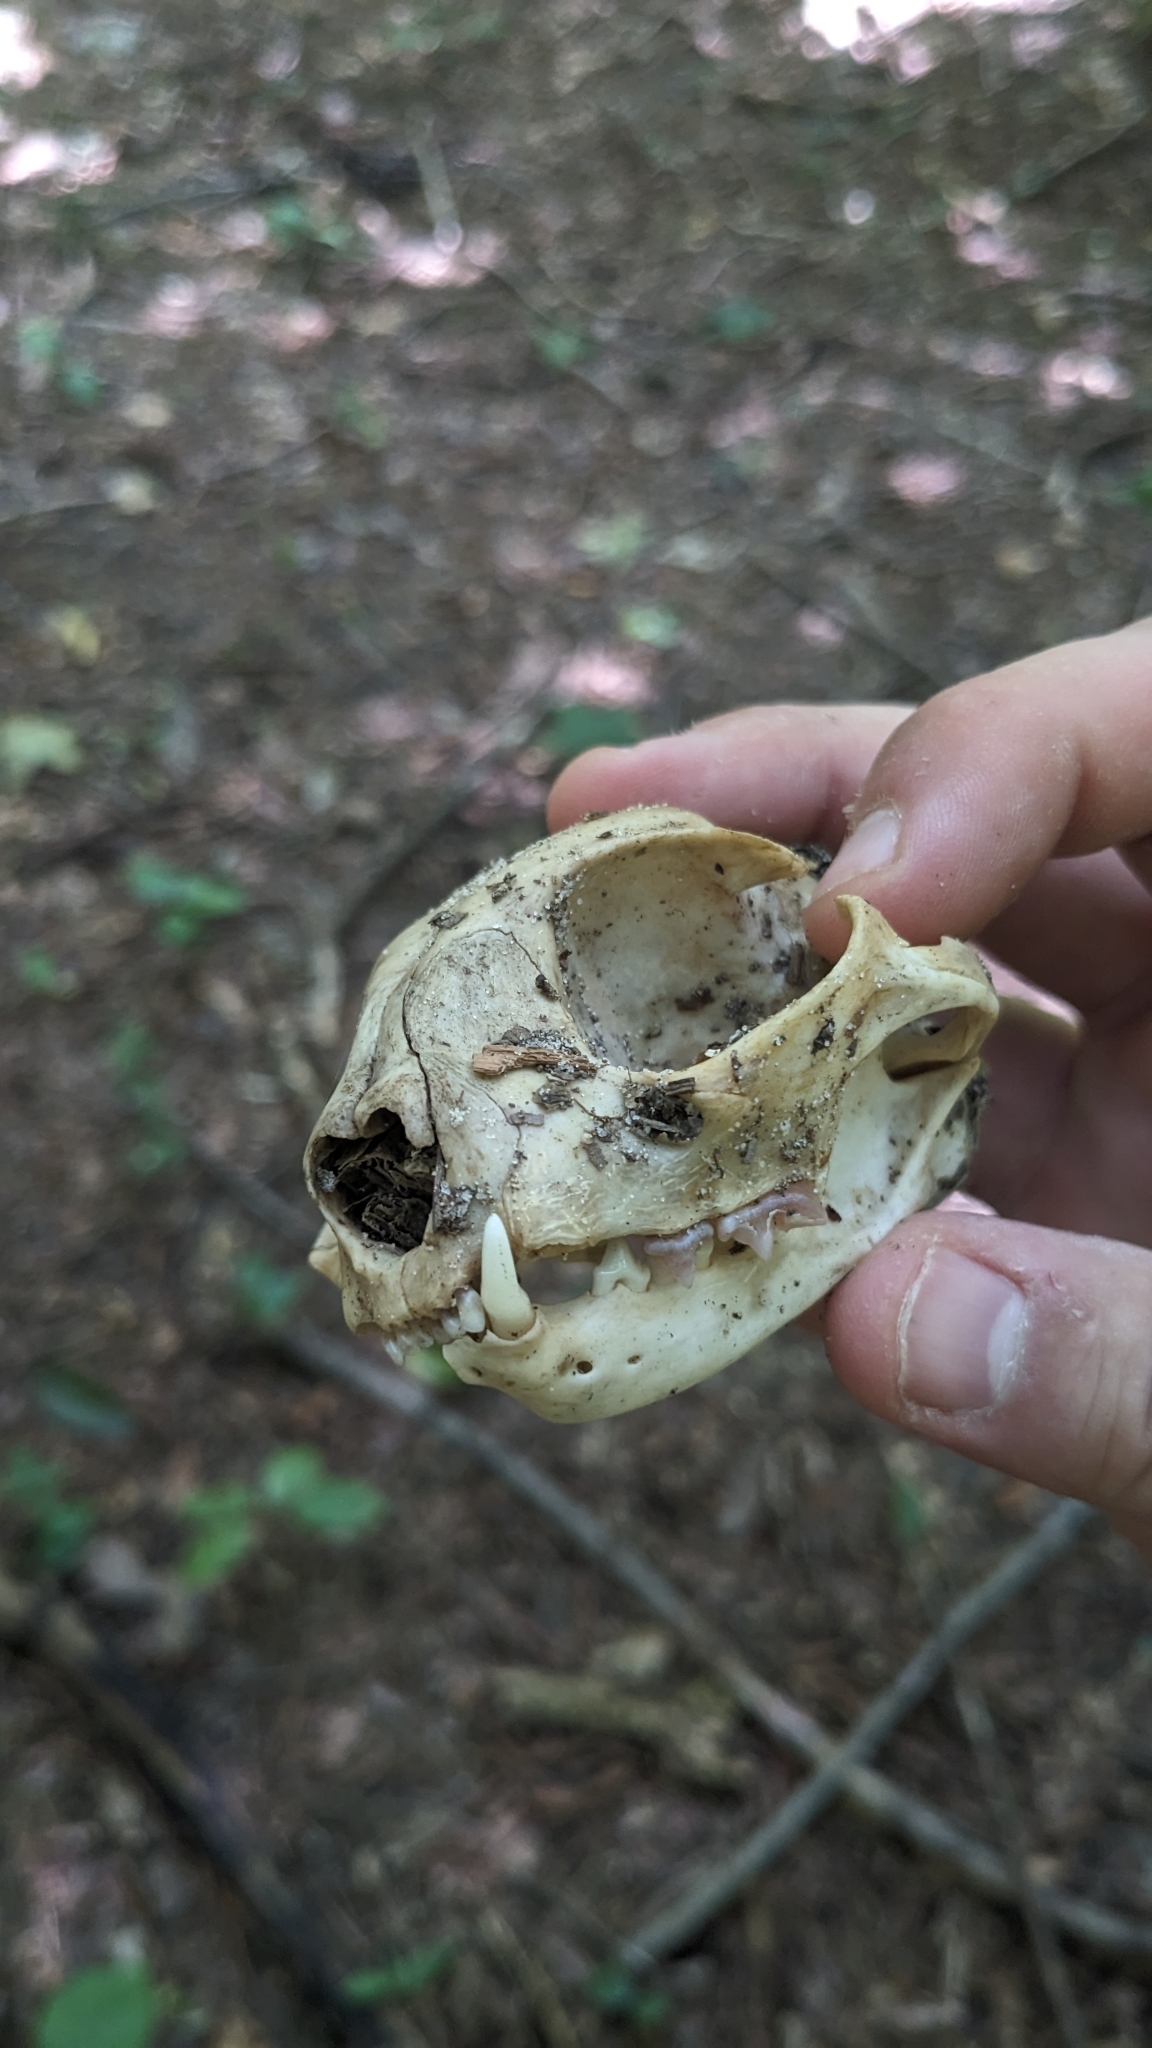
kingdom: Animalia
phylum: Chordata
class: Mammalia
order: Carnivora
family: Felidae
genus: Felis
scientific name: Felis catus
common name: Domestic cat
